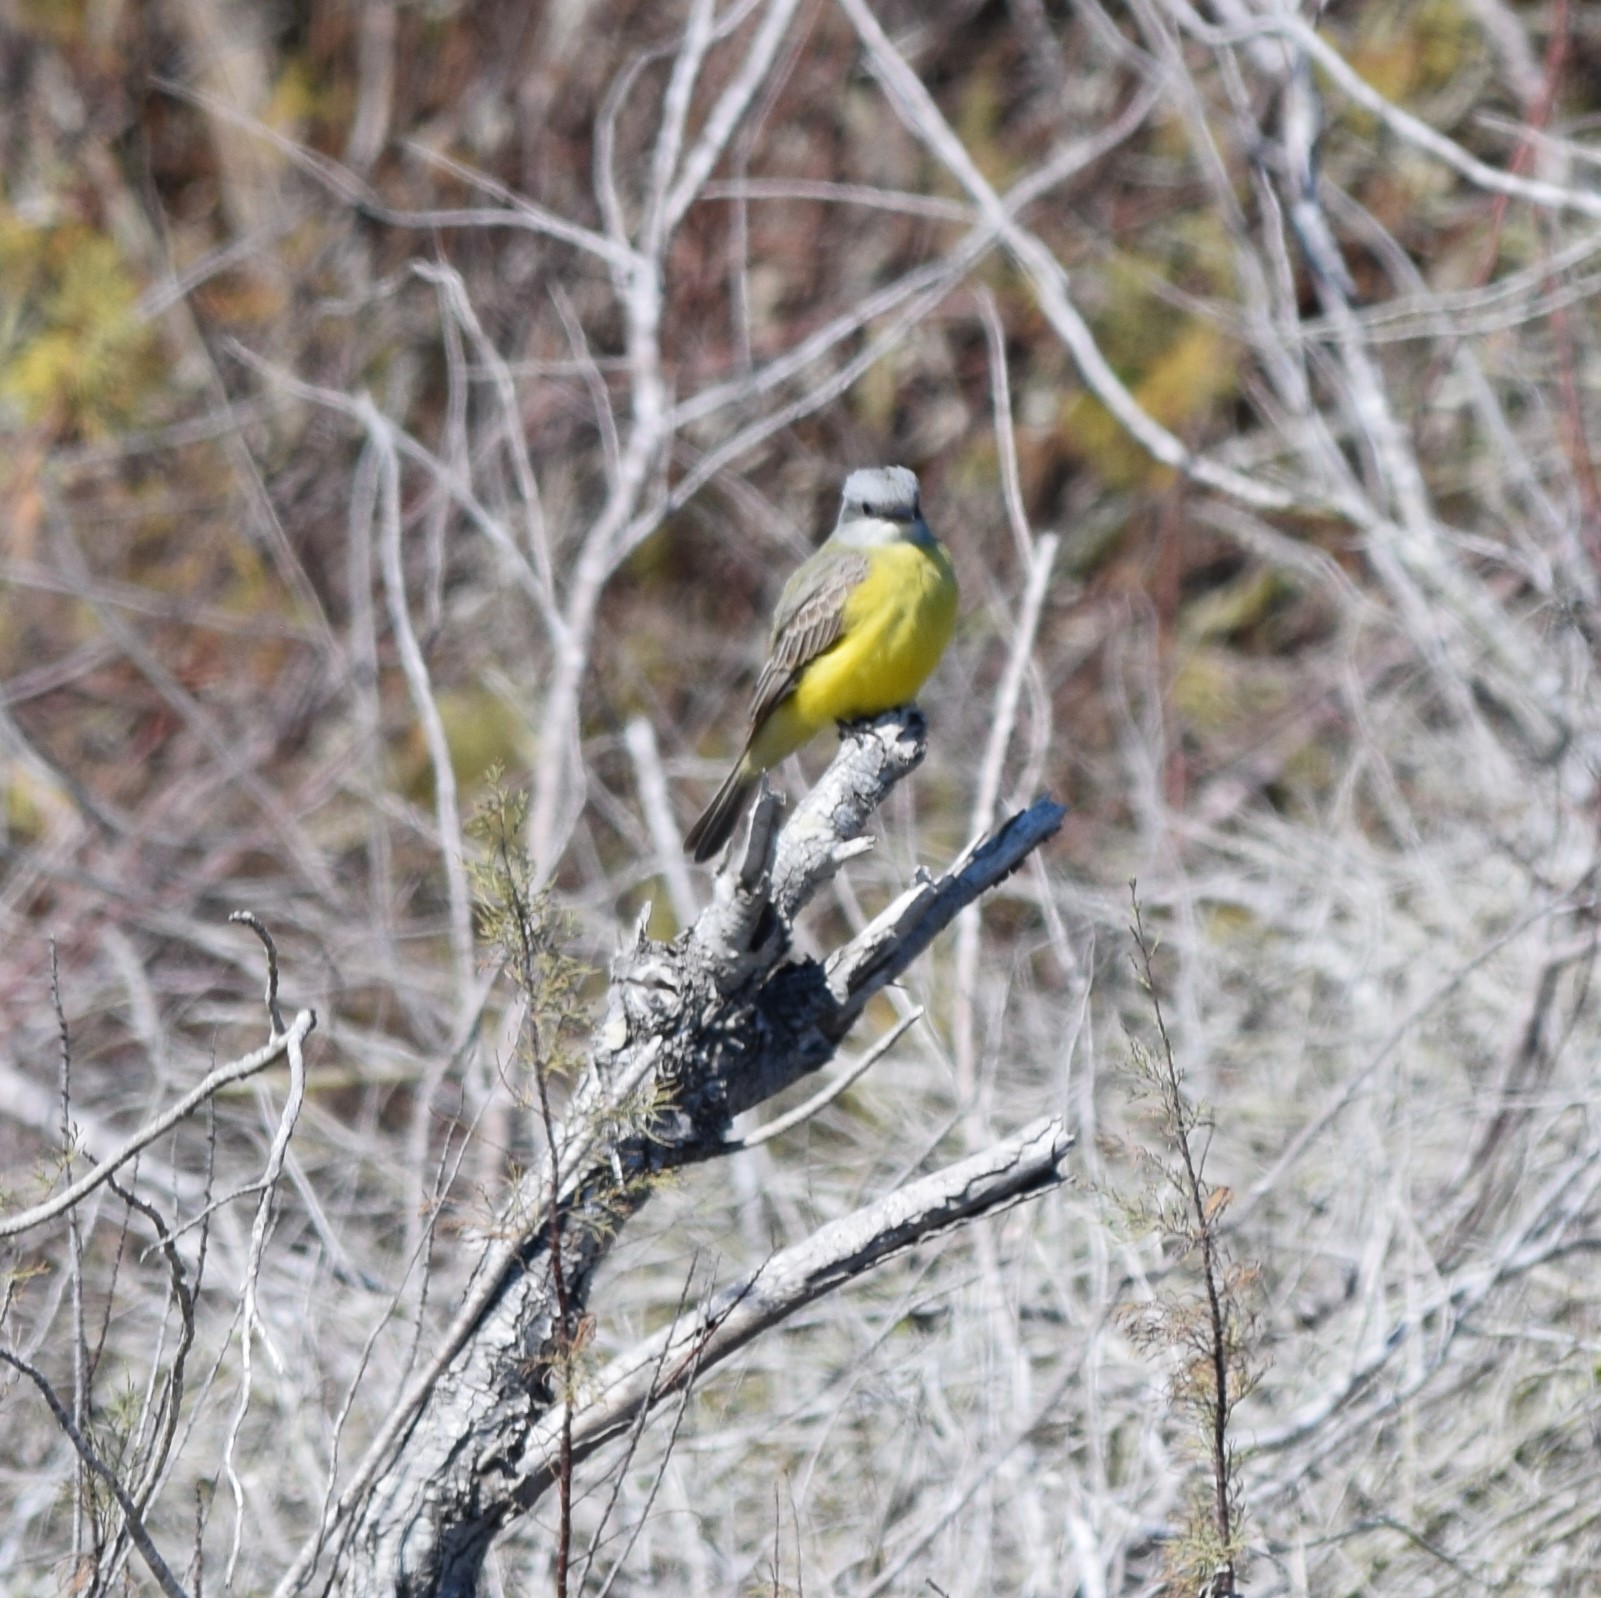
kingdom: Animalia
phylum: Chordata
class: Aves
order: Passeriformes
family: Tyrannidae
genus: Tyrannus
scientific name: Tyrannus
